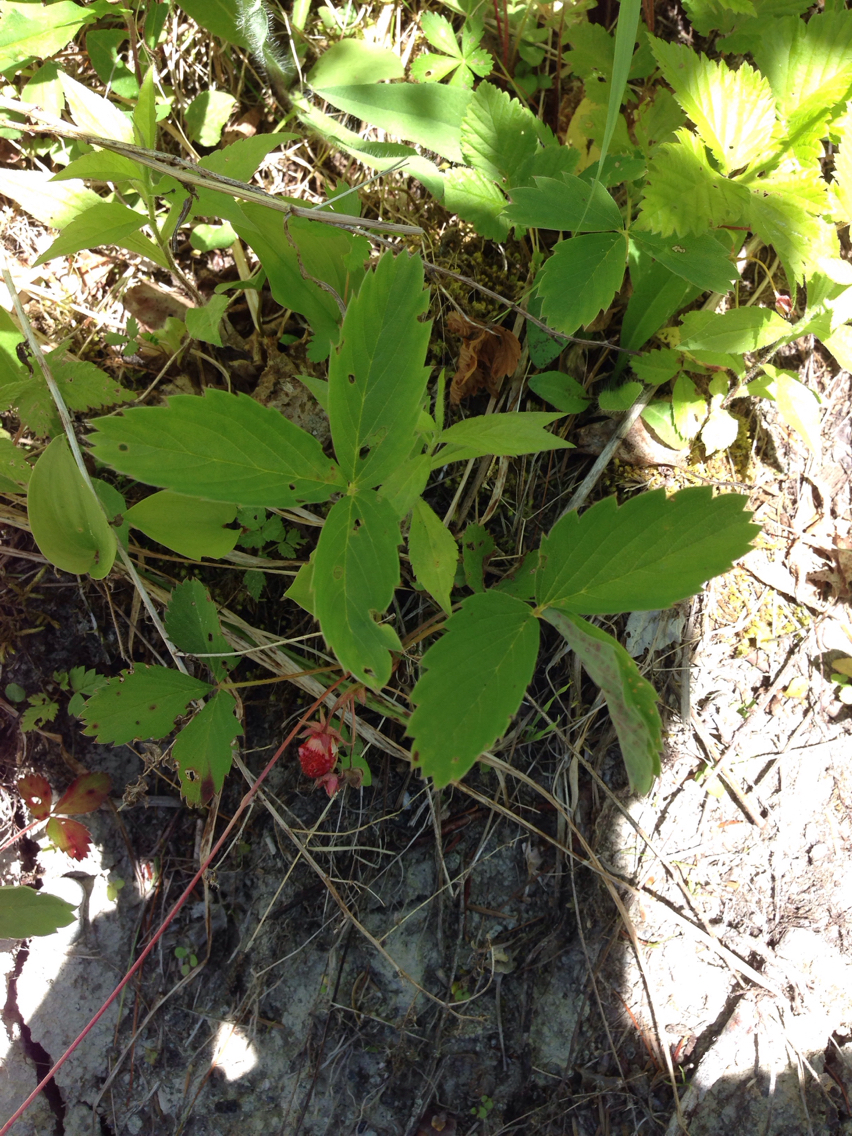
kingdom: Plantae
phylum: Tracheophyta
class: Magnoliopsida
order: Rosales
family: Rosaceae
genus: Fragaria
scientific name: Fragaria virginiana
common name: Thickleaved wild strawberry
